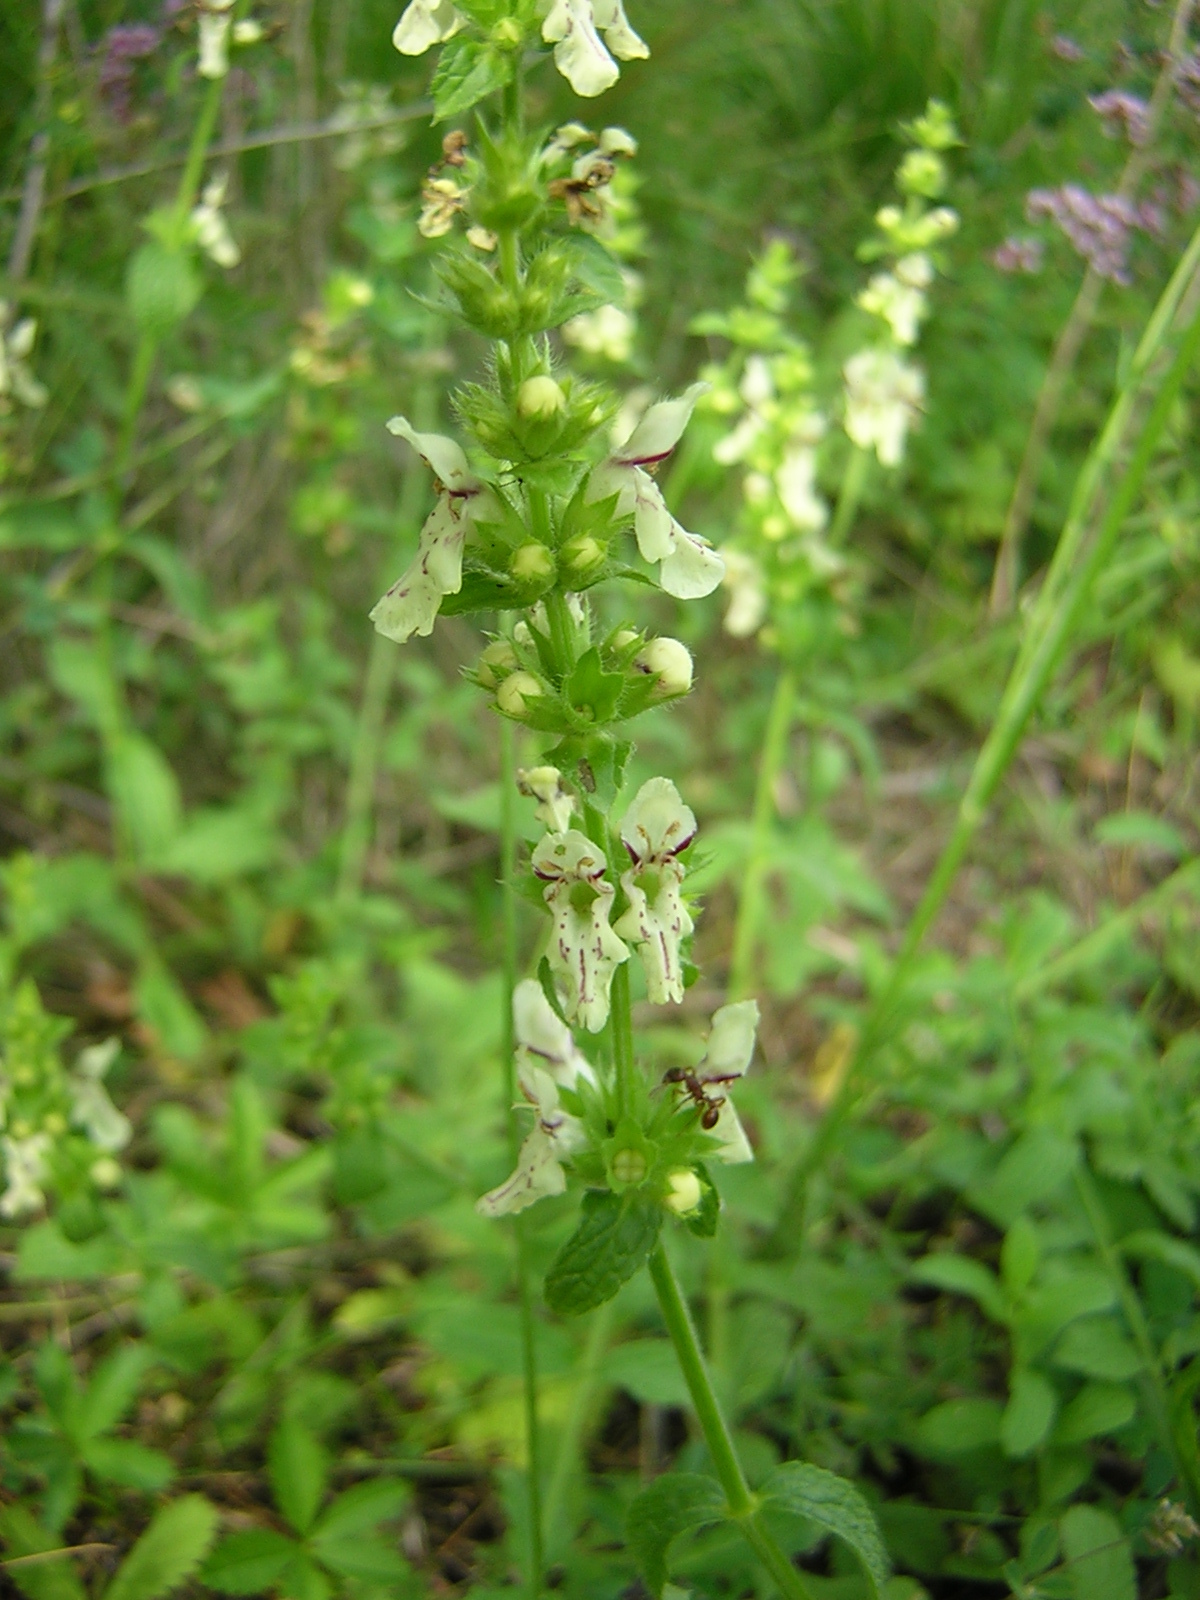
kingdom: Plantae
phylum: Tracheophyta
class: Magnoliopsida
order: Lamiales
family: Lamiaceae
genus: Stachys
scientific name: Stachys recta
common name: Perennial yellow-woundwort
